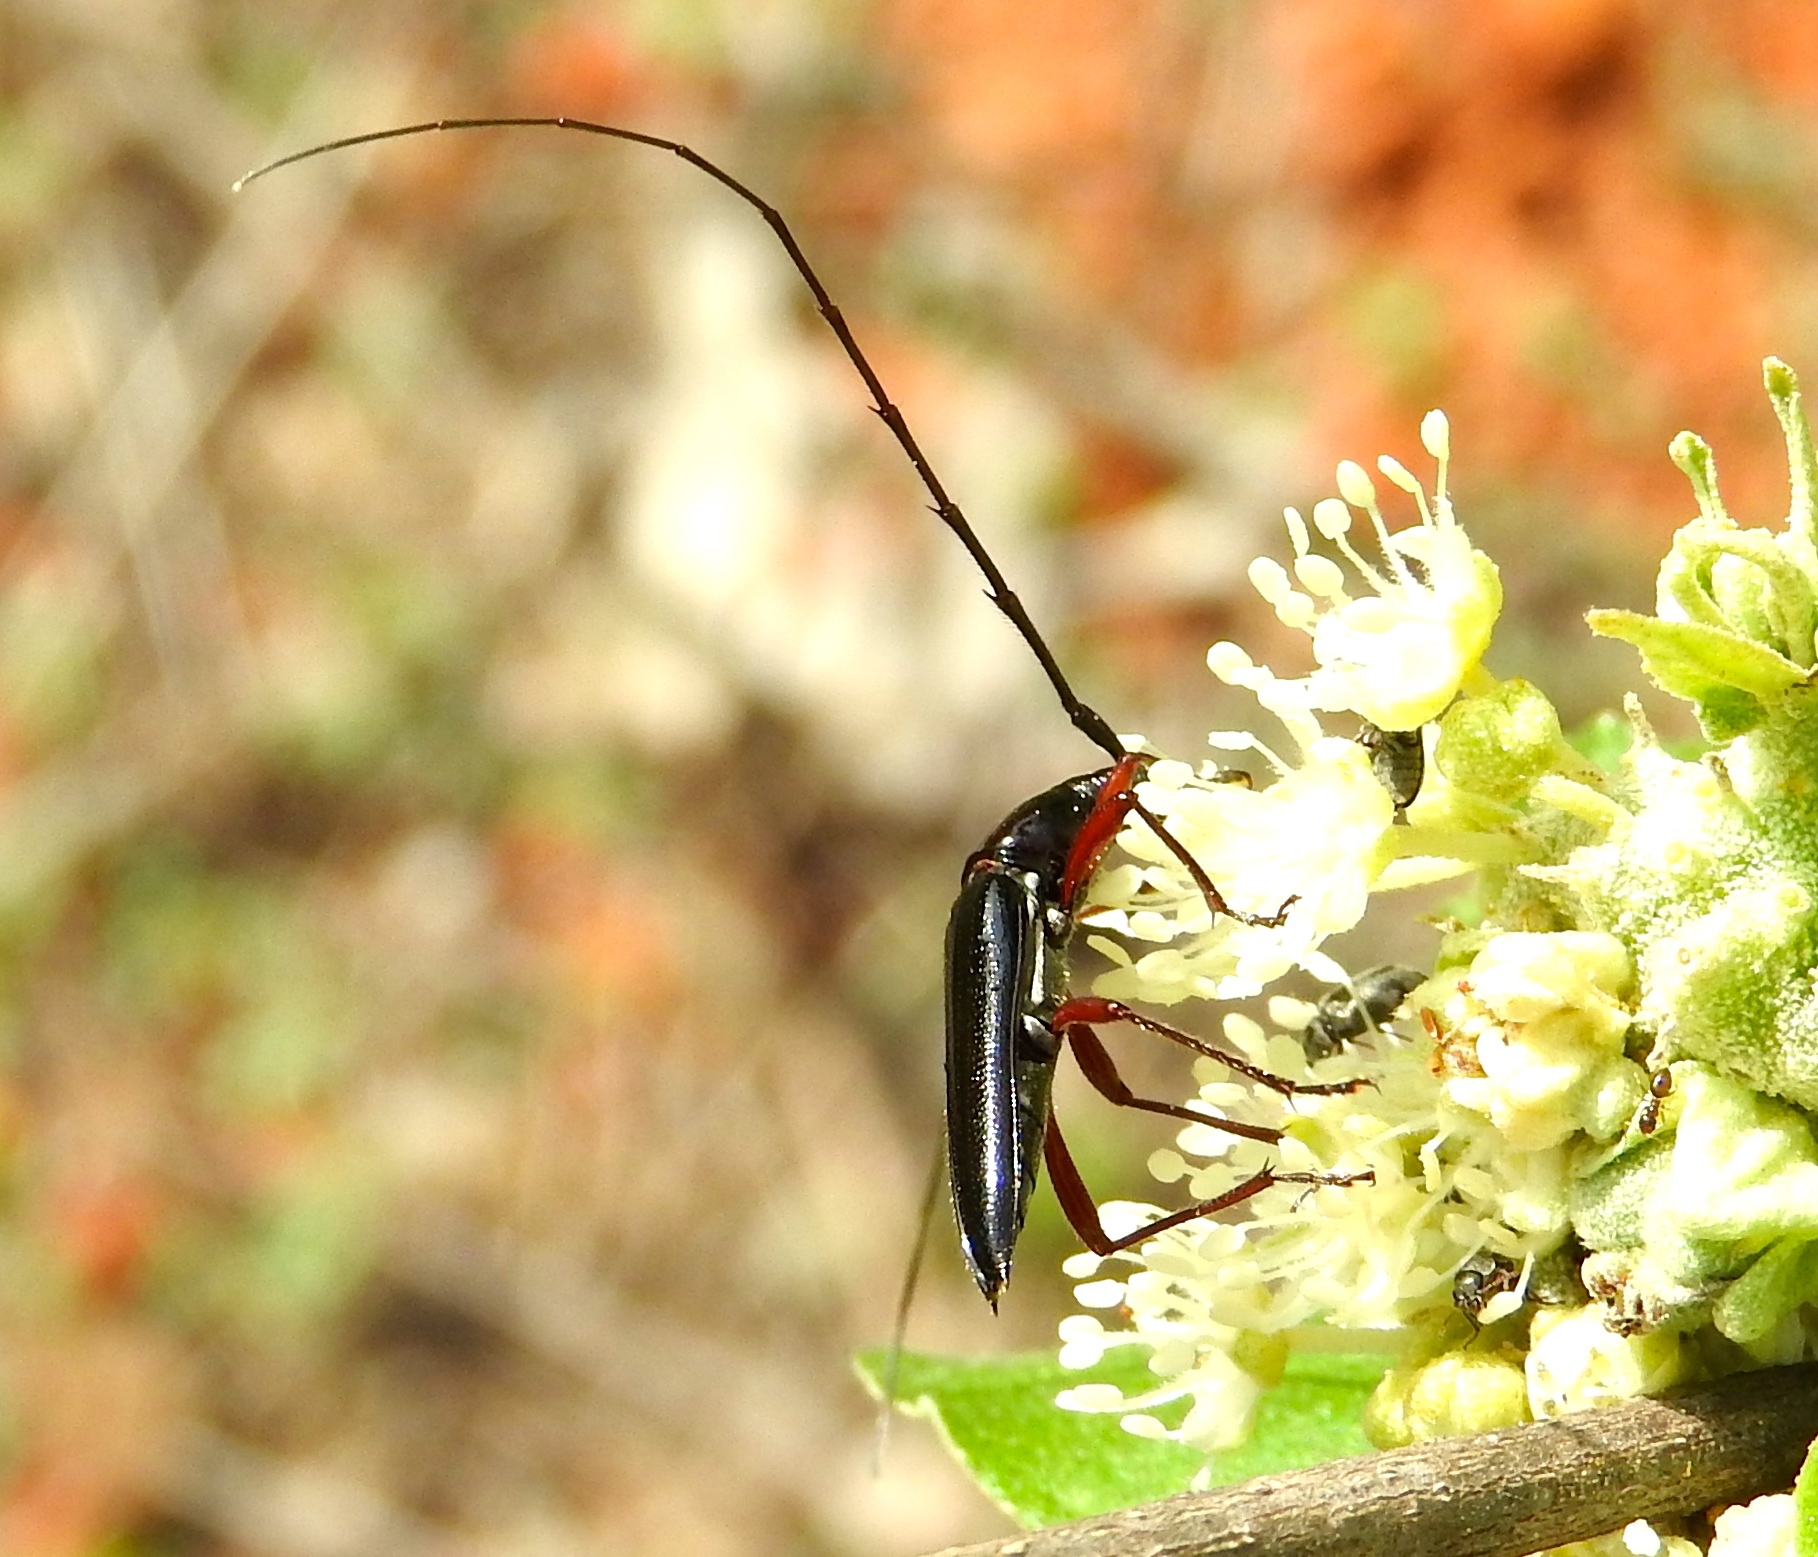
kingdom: Animalia
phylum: Arthropoda
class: Insecta
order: Coleoptera
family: Cerambycidae
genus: Stenosphenus
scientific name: Stenosphenus
